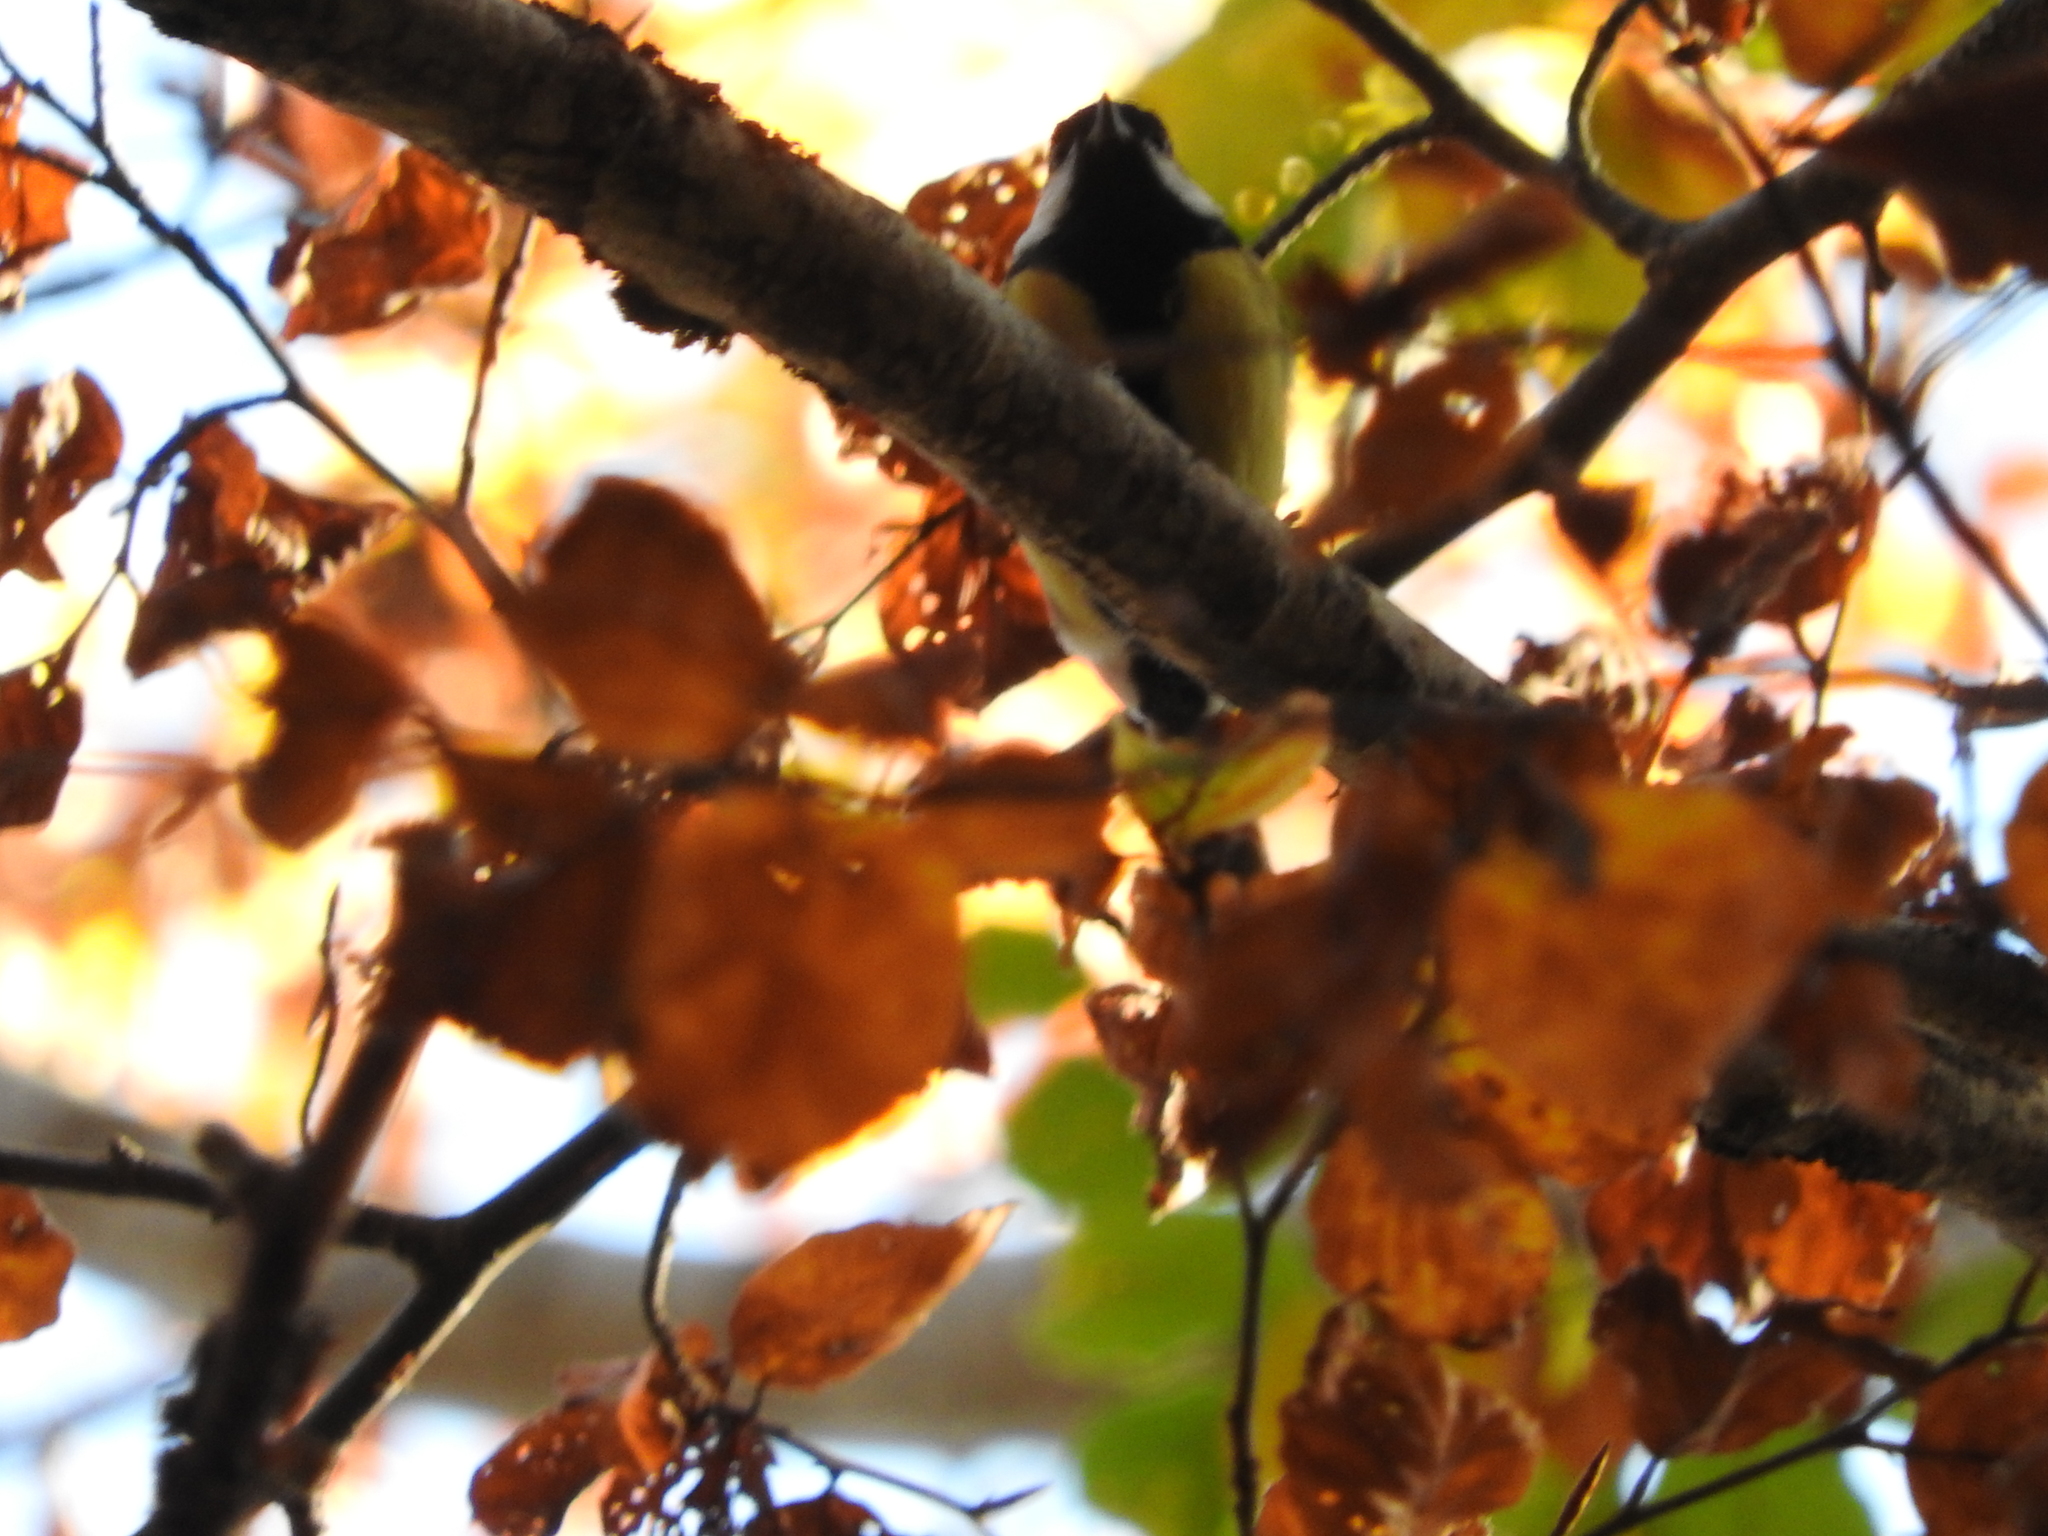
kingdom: Animalia
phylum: Chordata
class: Aves
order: Passeriformes
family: Paridae
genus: Parus
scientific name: Parus major
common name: Great tit
